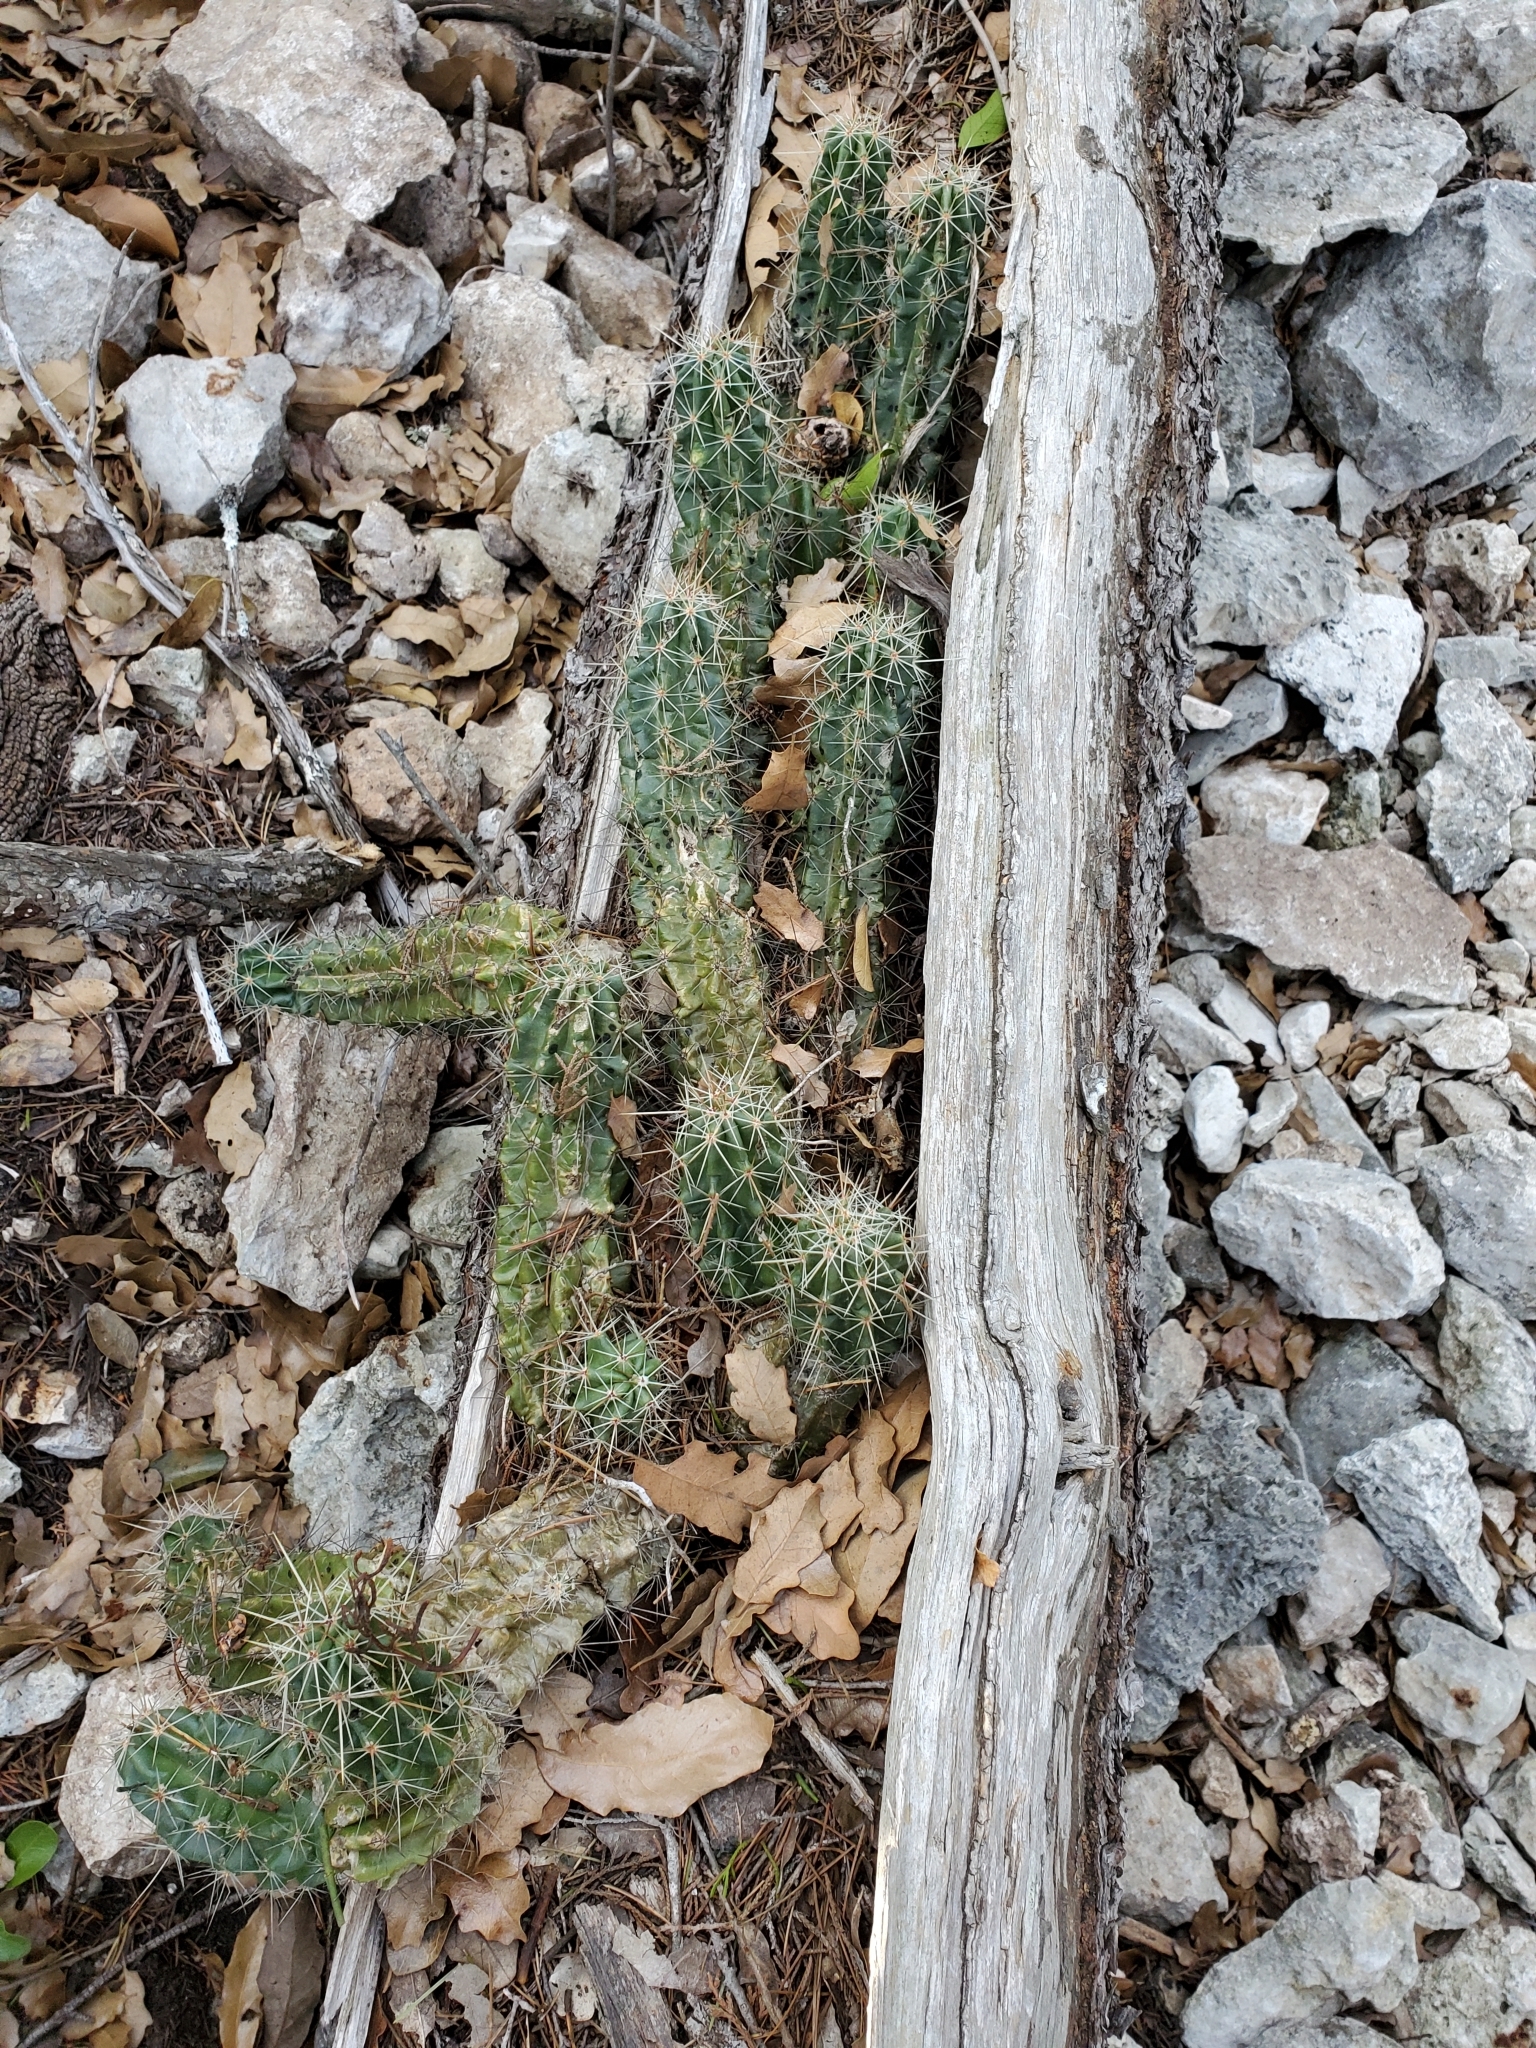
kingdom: Plantae
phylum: Tracheophyta
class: Magnoliopsida
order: Caryophyllales
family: Cactaceae
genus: Echinocereus
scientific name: Echinocereus enneacanthus
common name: Pitaya
